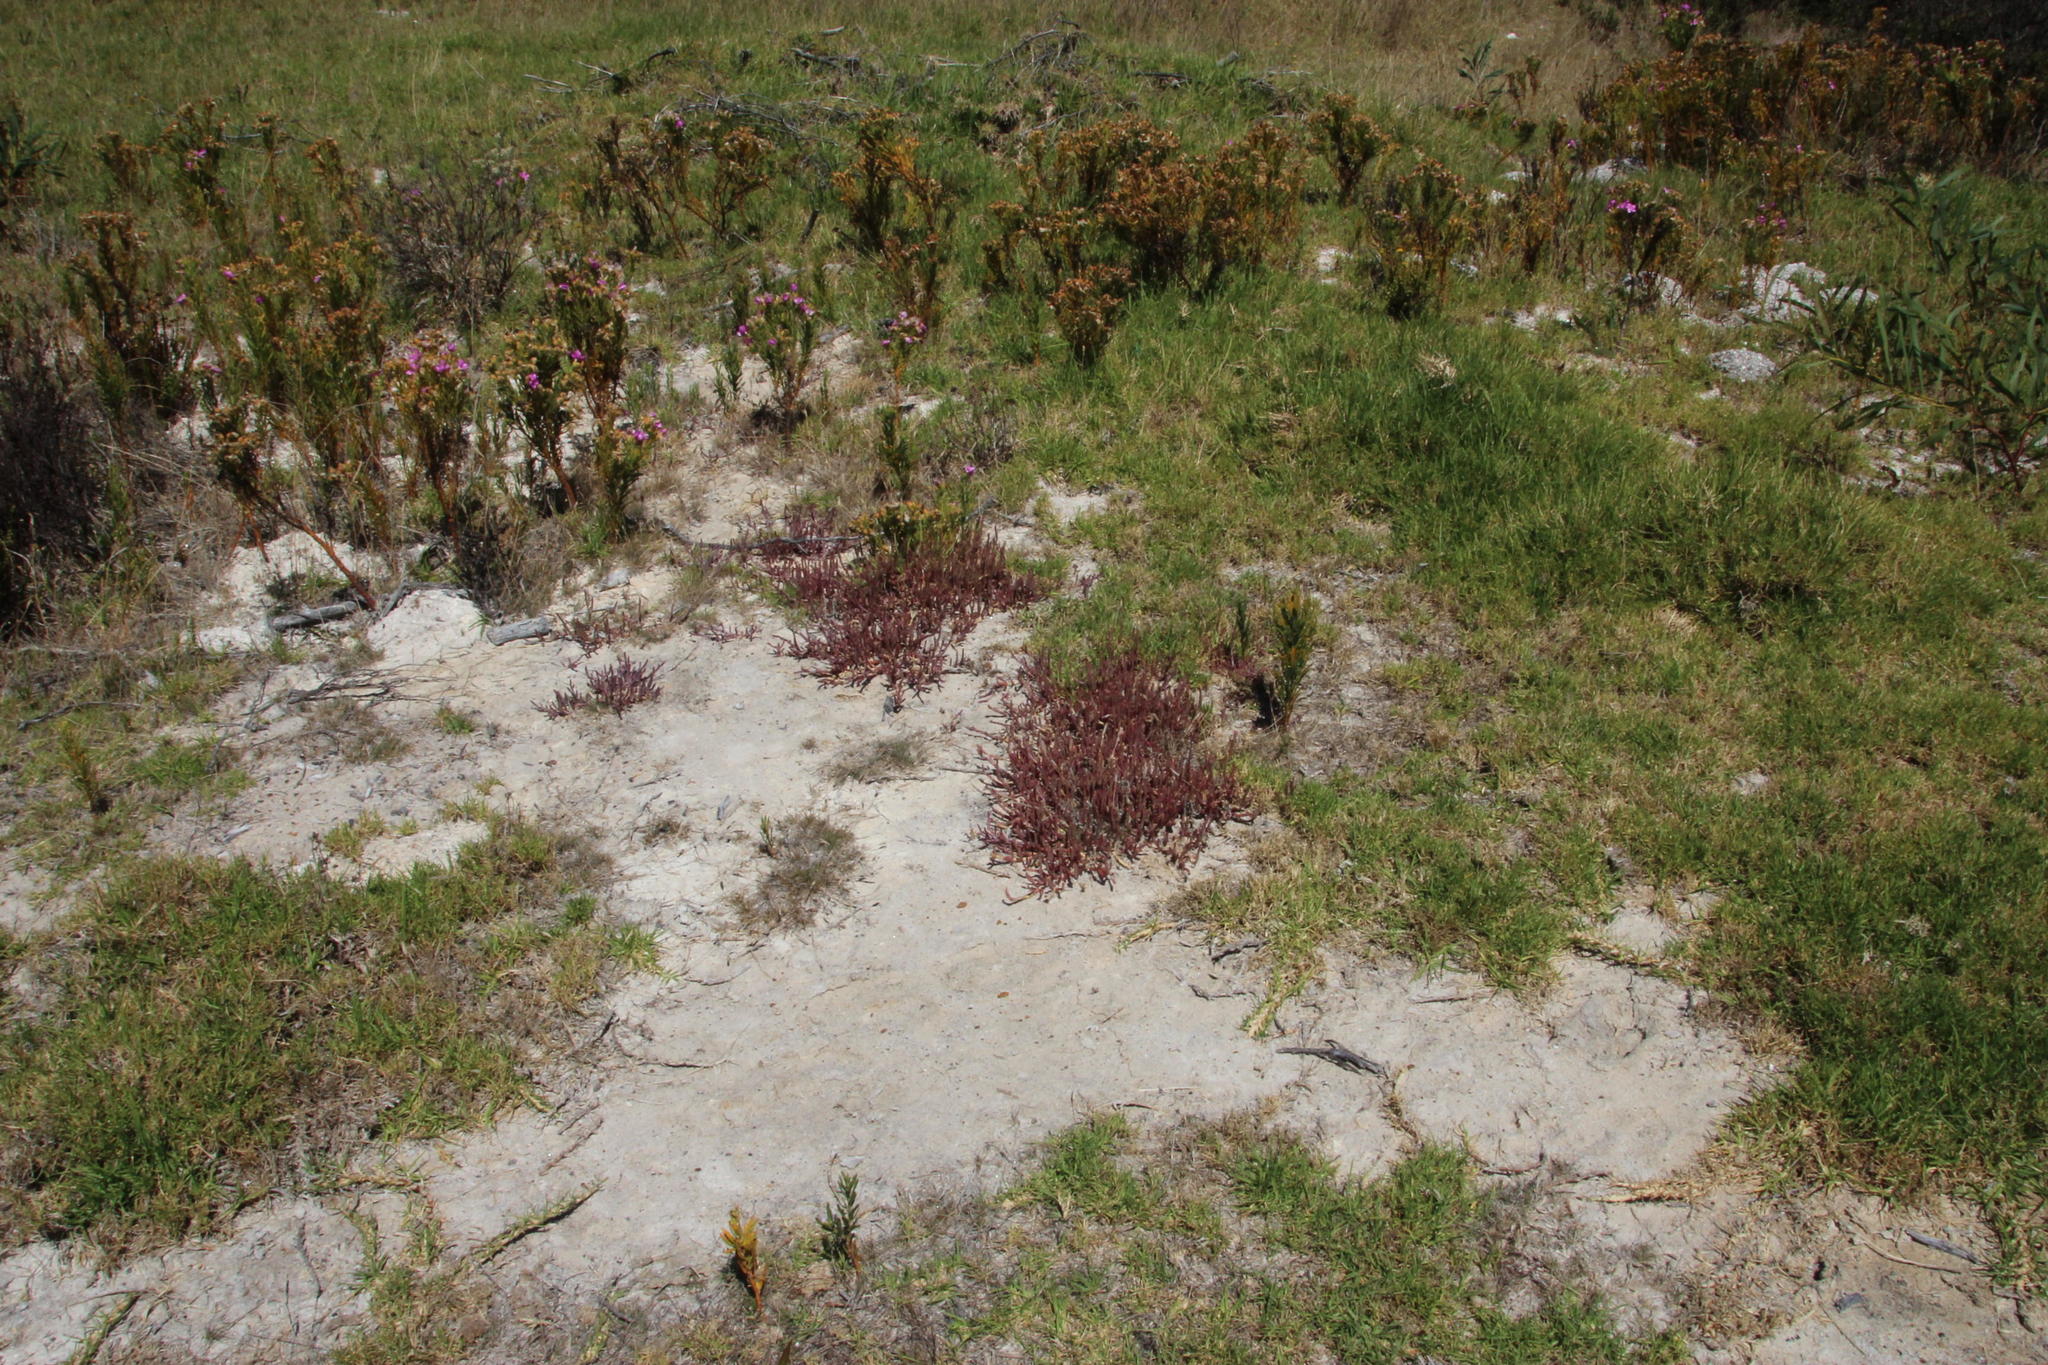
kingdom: Plantae
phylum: Tracheophyta
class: Magnoliopsida
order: Caryophyllales
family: Amaranthaceae
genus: Salicornia
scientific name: Salicornia natalensis
